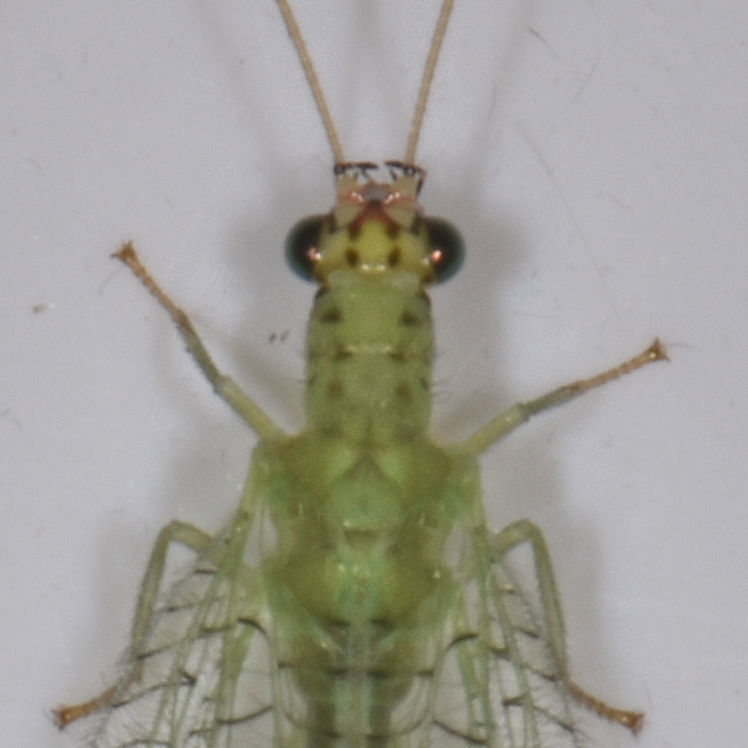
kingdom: Animalia
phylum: Arthropoda
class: Insecta
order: Neuroptera
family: Chrysopidae
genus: Chrysopa
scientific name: Chrysopa oculata
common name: Golden-eyed lacewing
